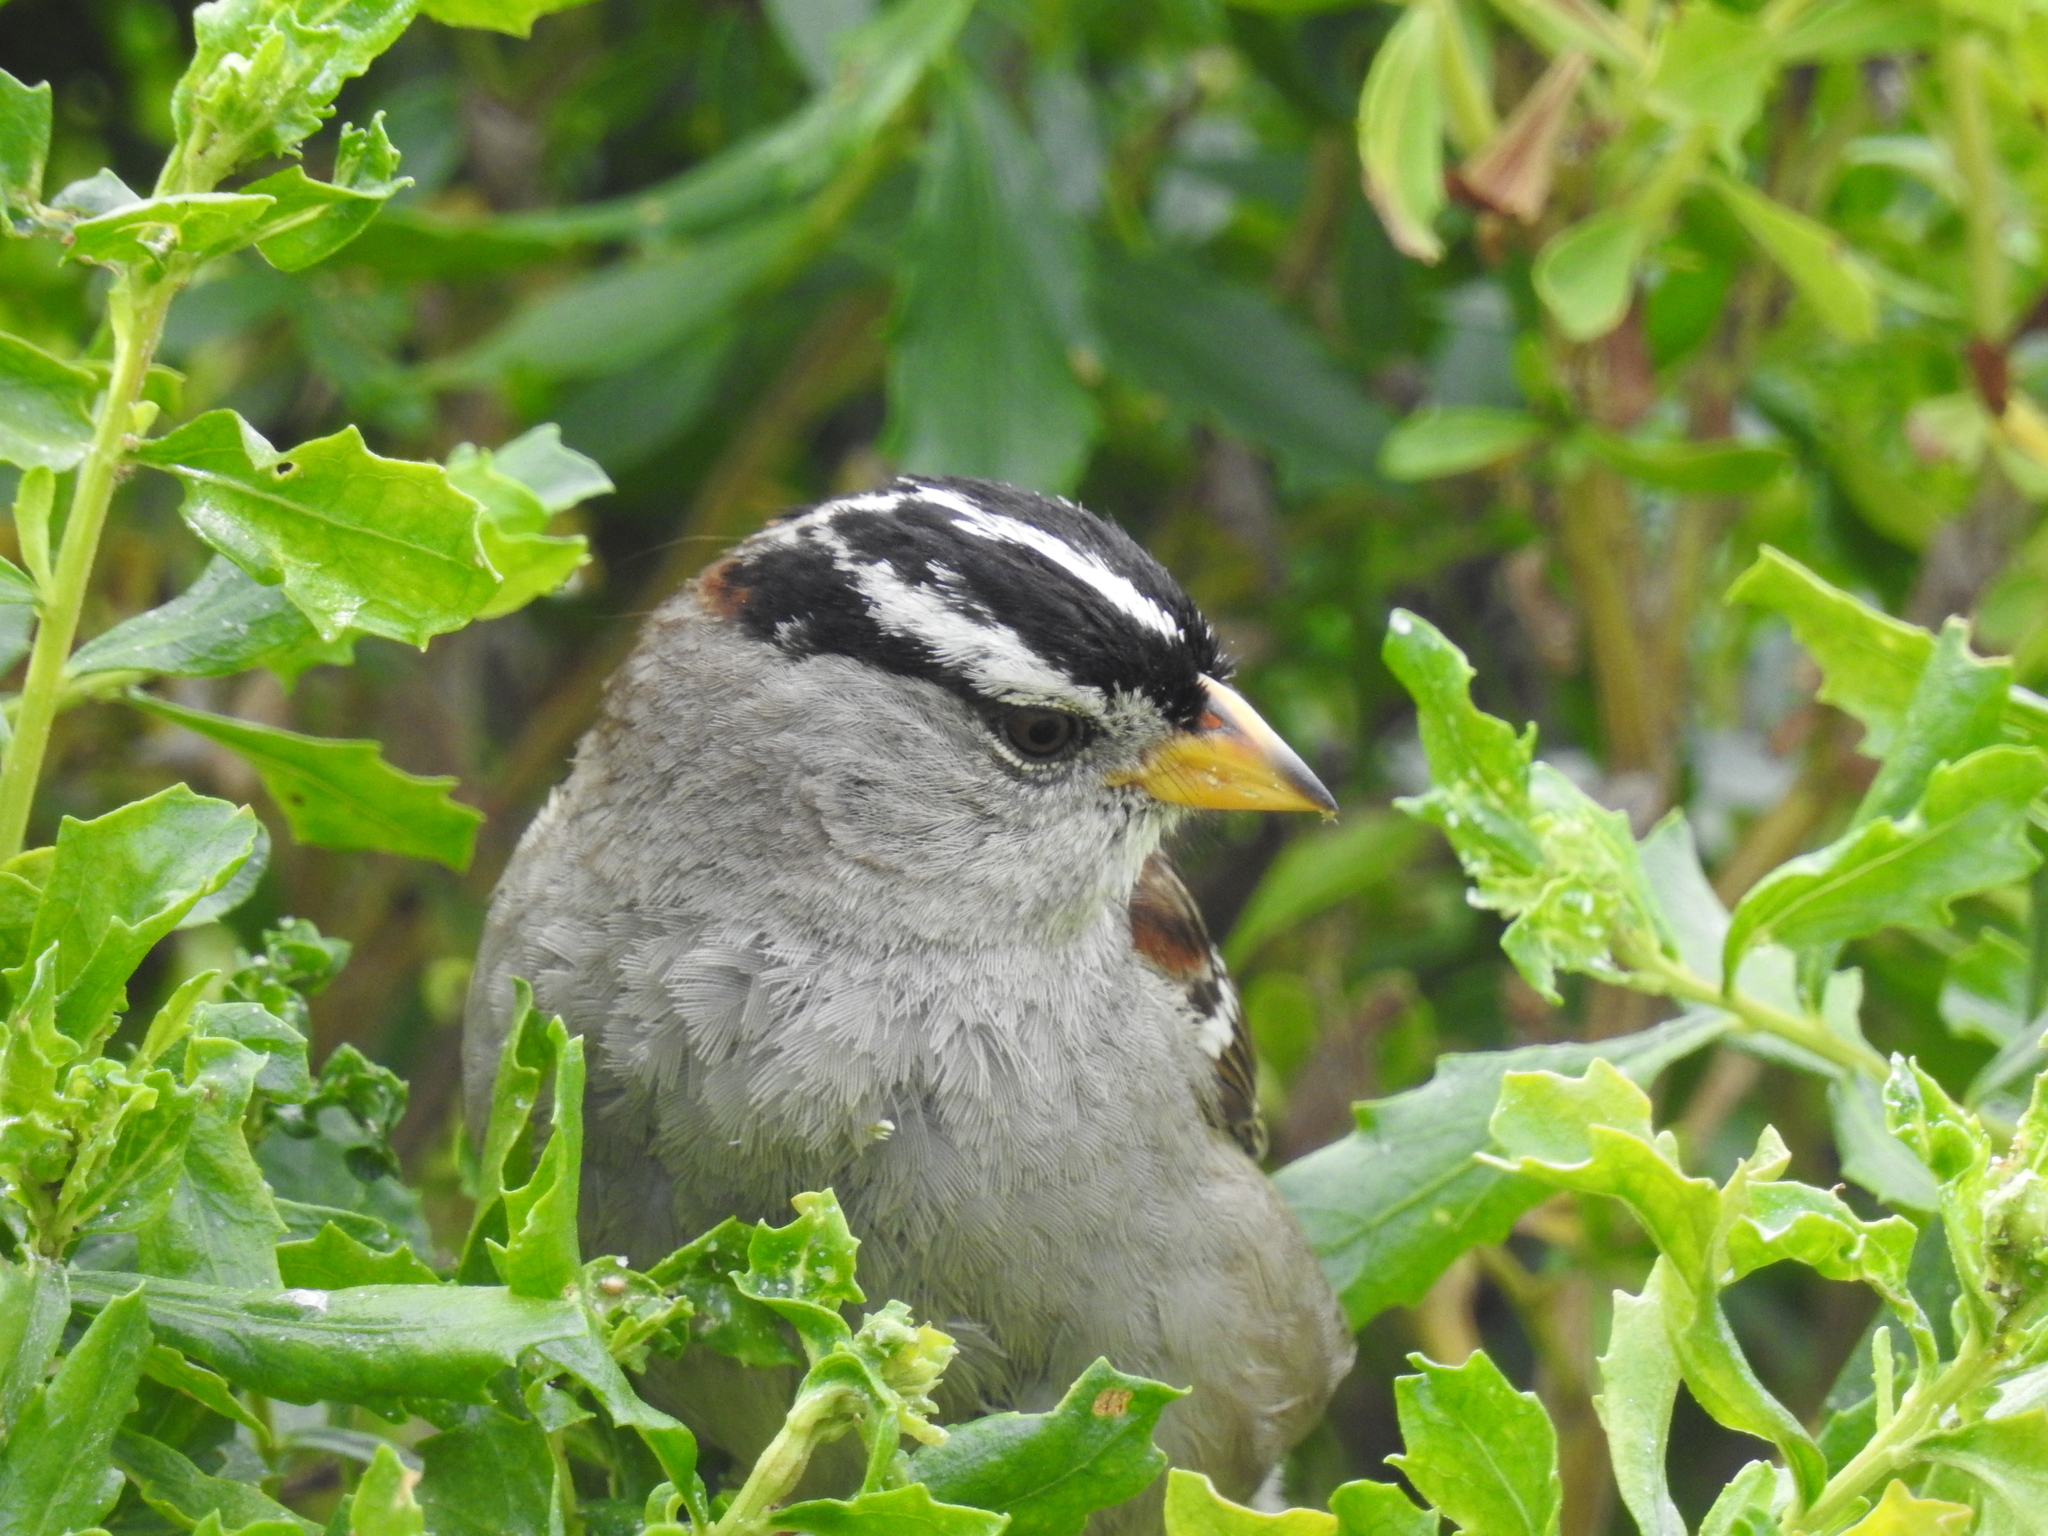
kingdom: Animalia
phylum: Chordata
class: Aves
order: Passeriformes
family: Passerellidae
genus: Zonotrichia
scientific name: Zonotrichia leucophrys
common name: White-crowned sparrow
